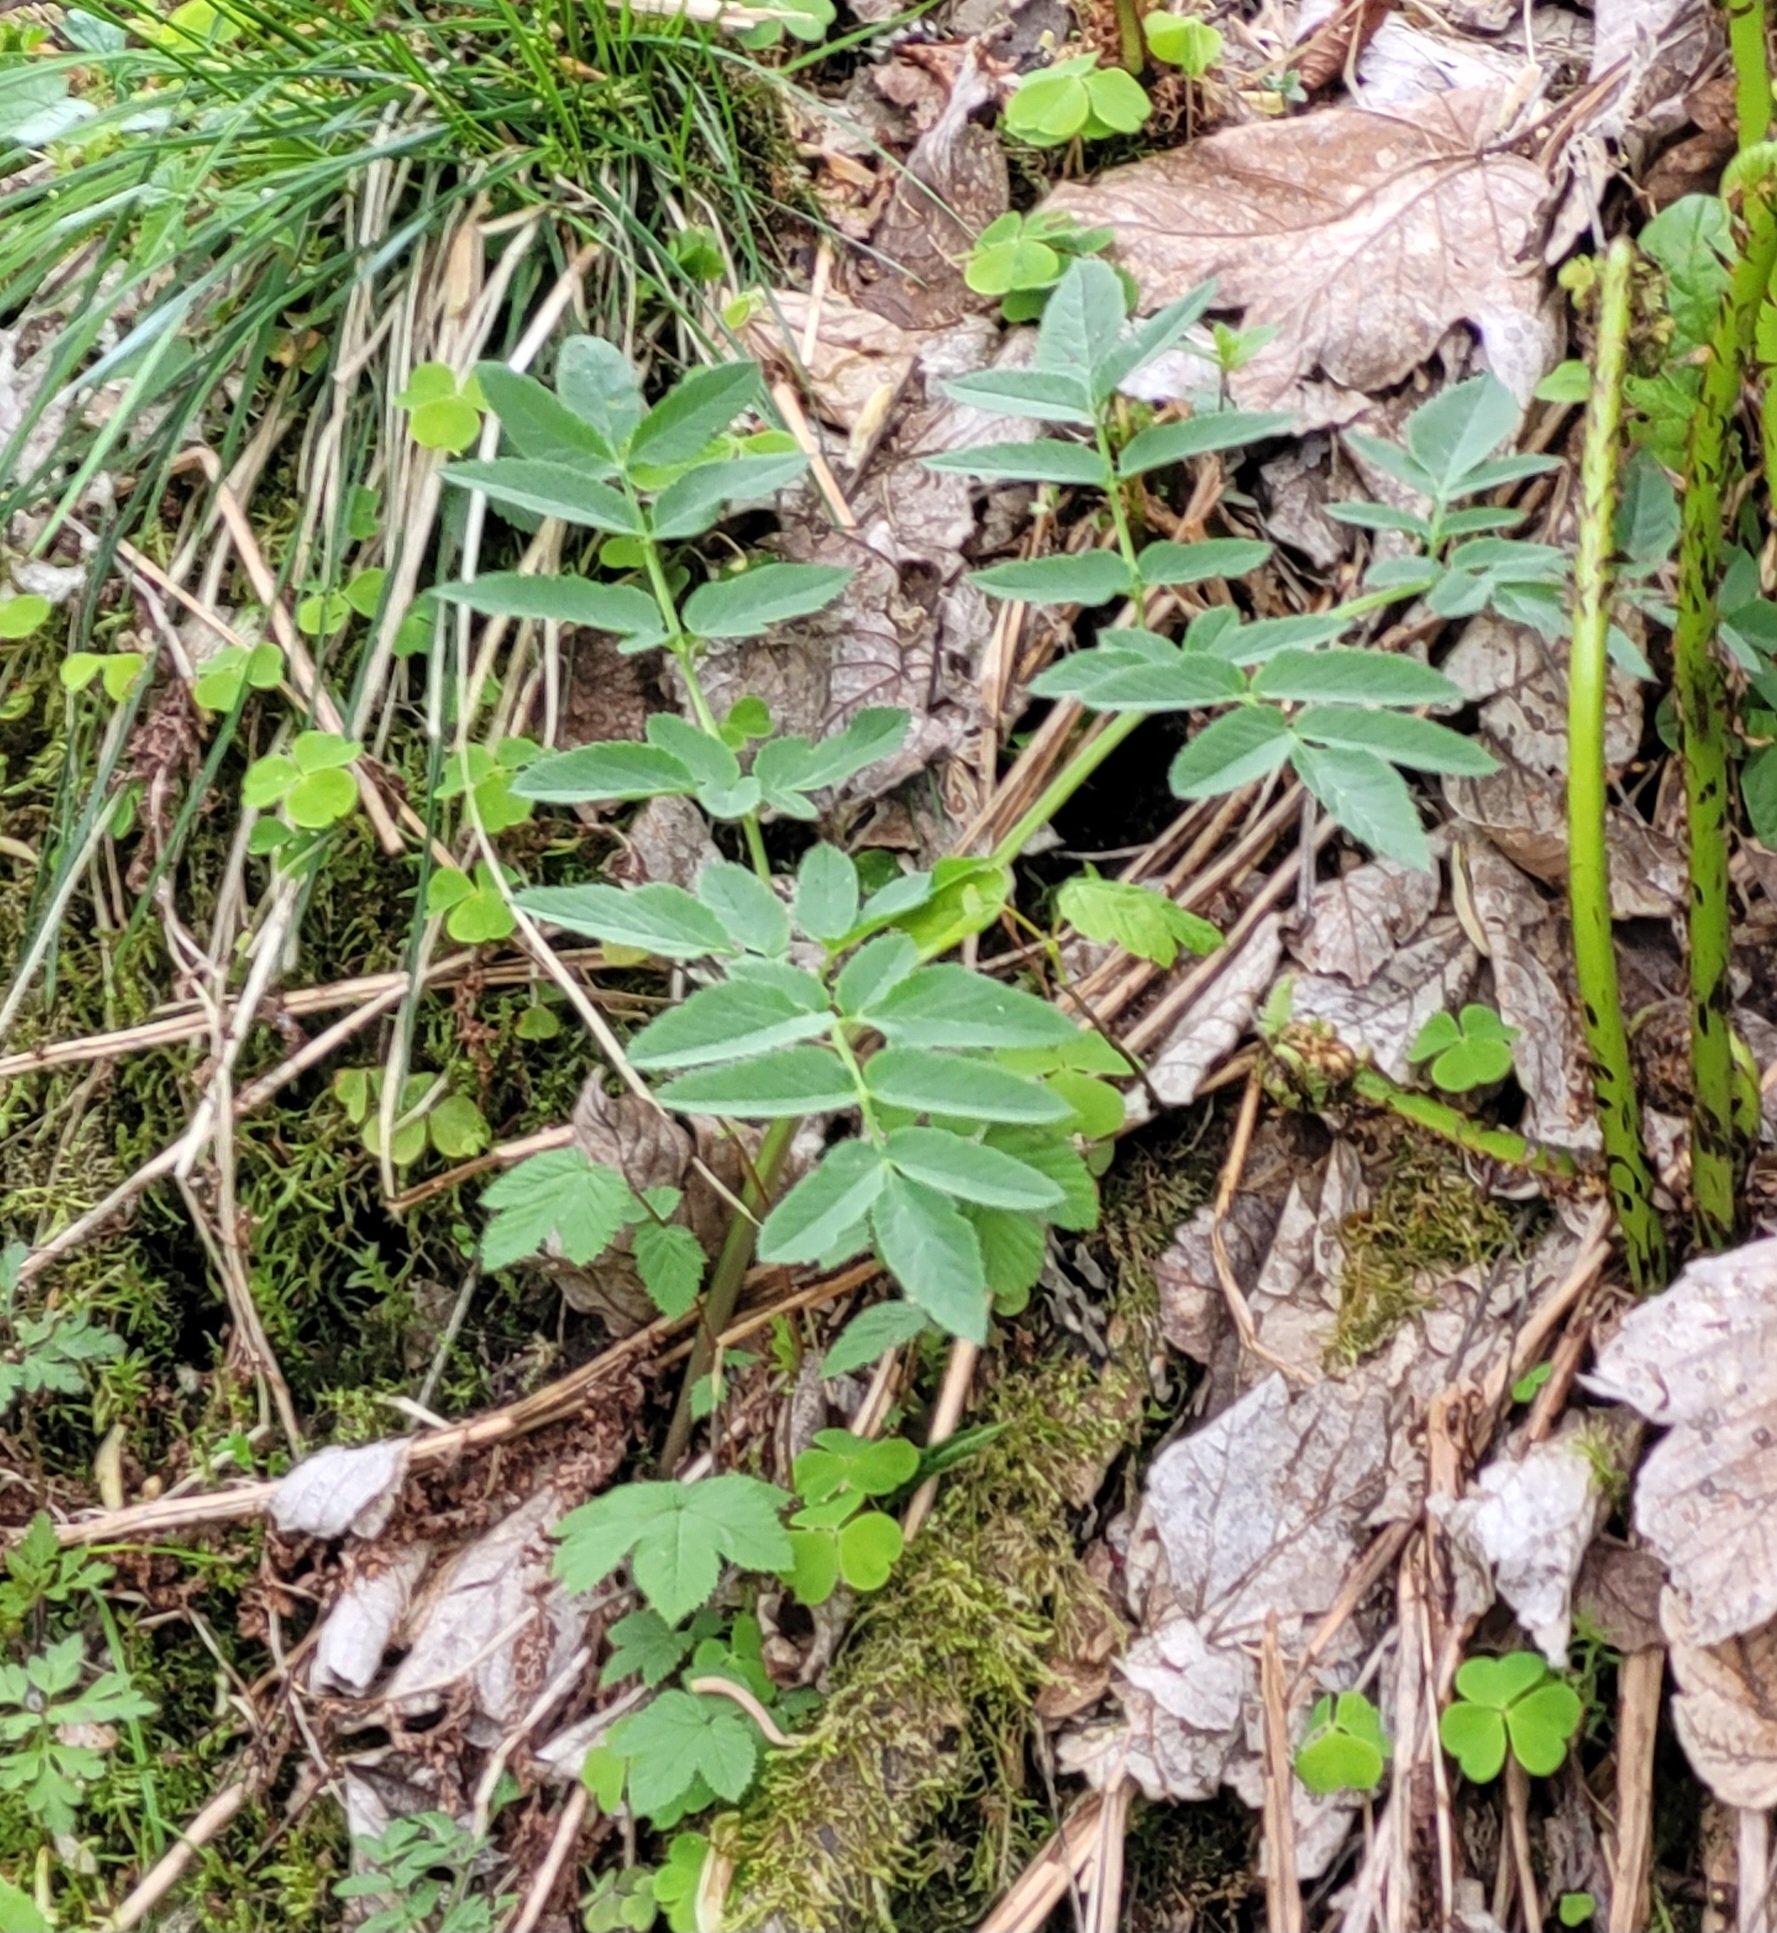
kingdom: Plantae
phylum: Tracheophyta
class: Magnoliopsida
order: Apiales
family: Apiaceae
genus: Angelica
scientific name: Angelica sylvestris
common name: Wild angelica
